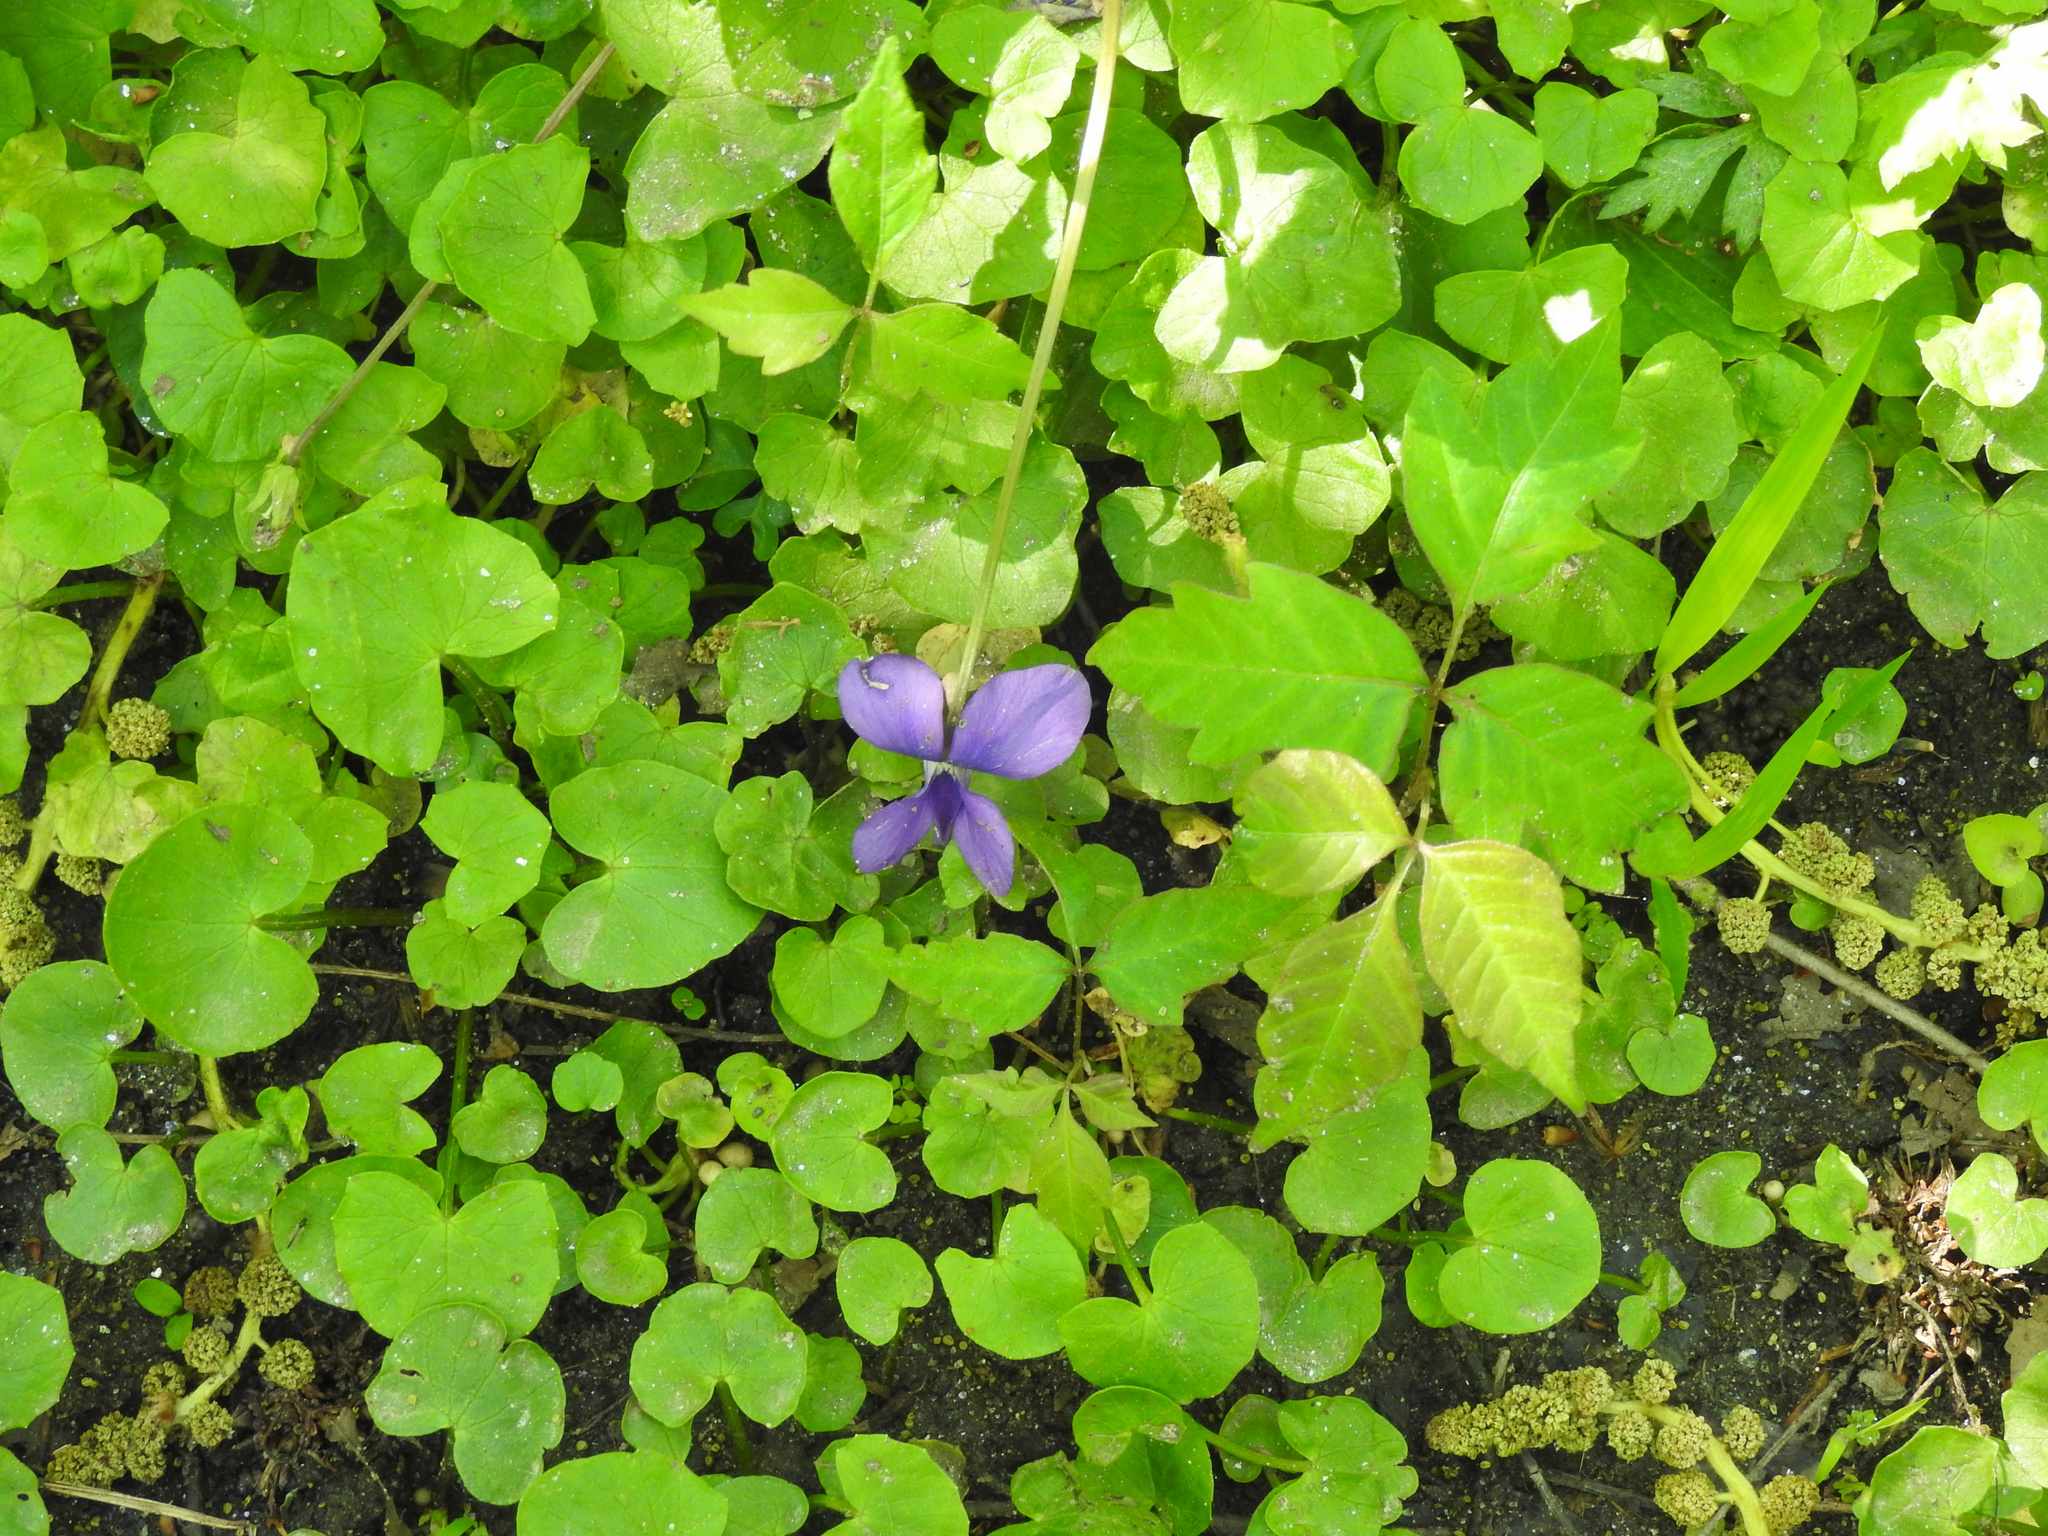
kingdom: Plantae
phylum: Tracheophyta
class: Magnoliopsida
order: Malpighiales
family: Violaceae
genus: Viola
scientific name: Viola sororia
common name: Dooryard violet
